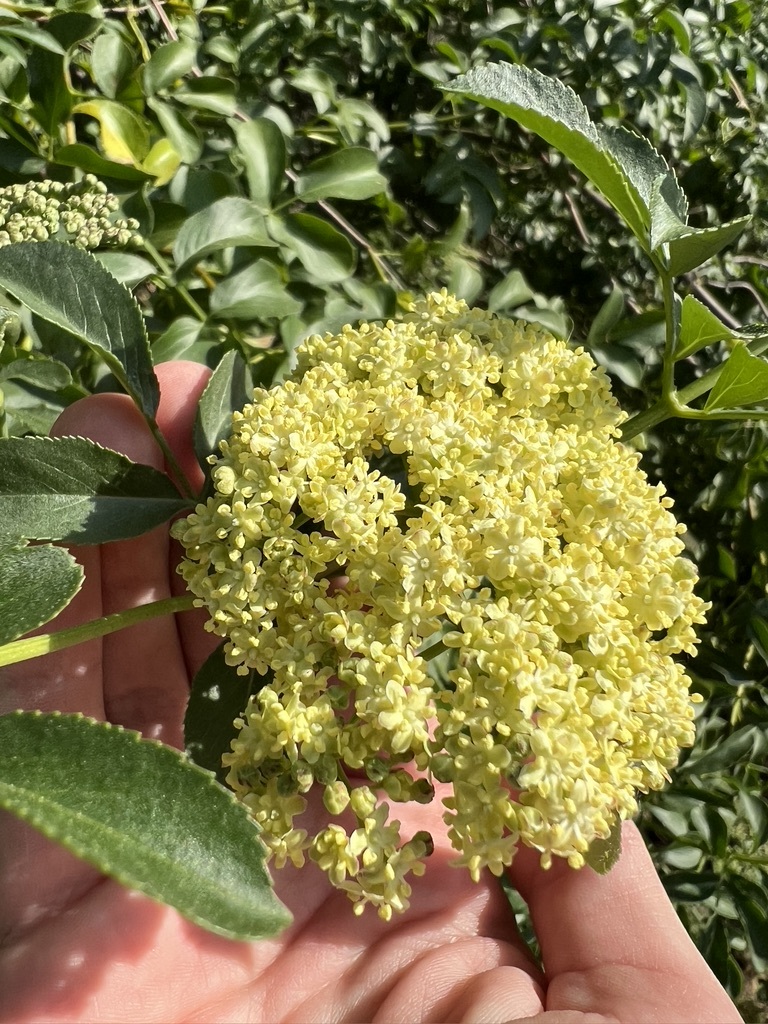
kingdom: Plantae
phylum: Tracheophyta
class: Magnoliopsida
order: Dipsacales
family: Viburnaceae
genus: Sambucus
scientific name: Sambucus cerulea
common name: Blue elder
